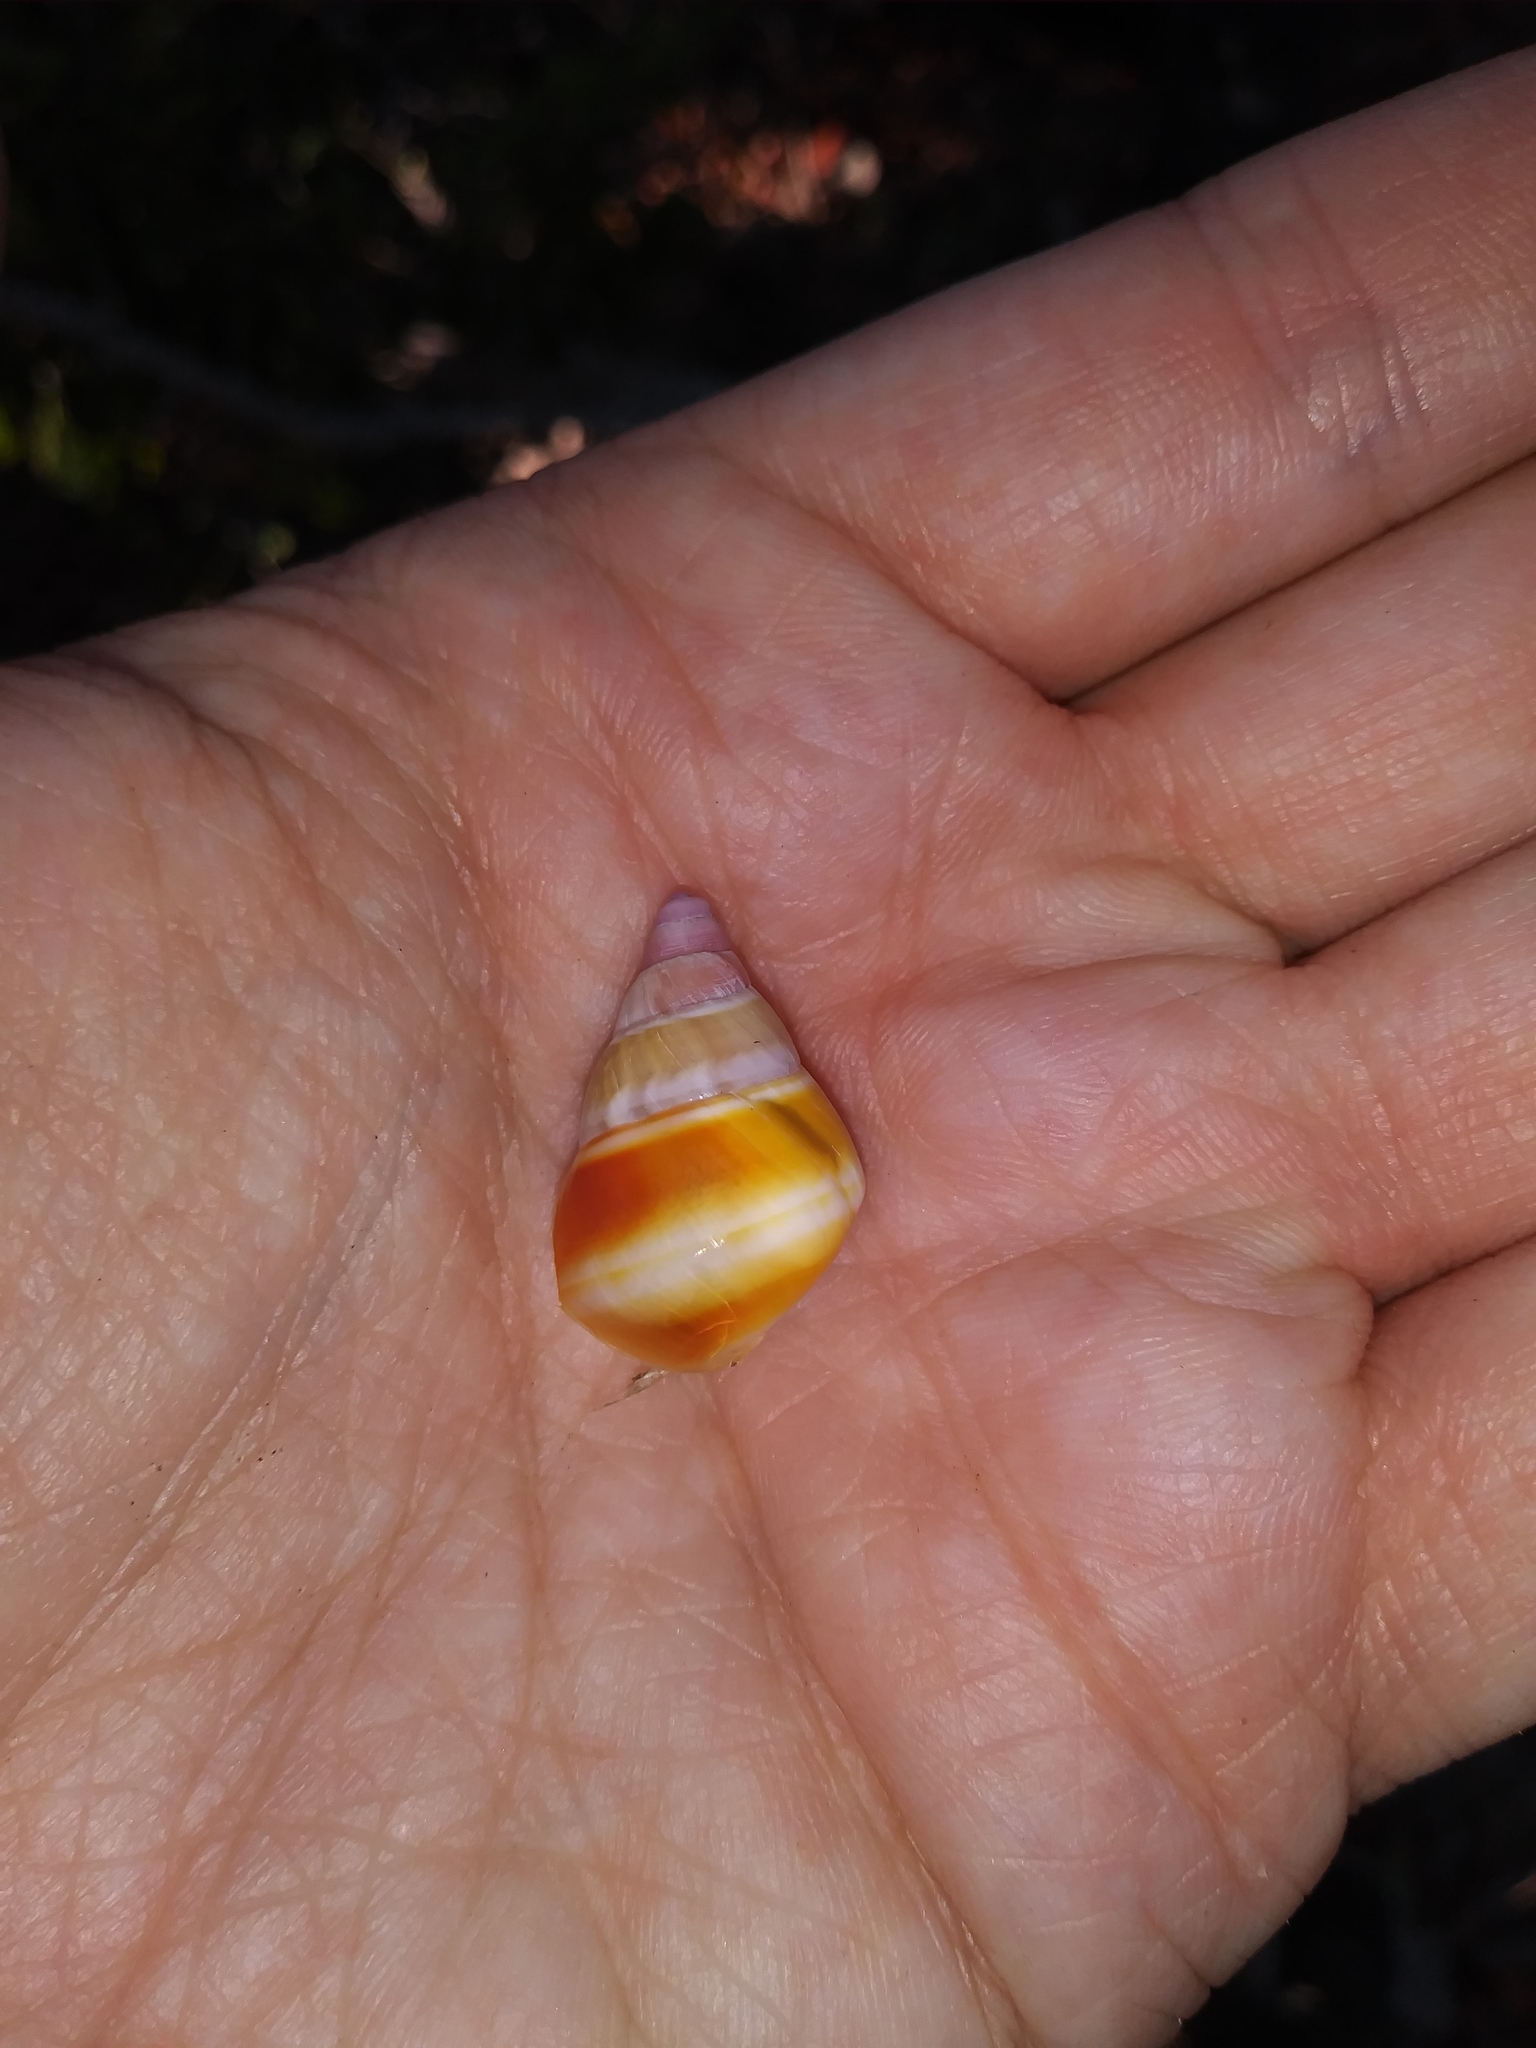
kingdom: Animalia
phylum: Mollusca
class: Gastropoda
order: Stylommatophora
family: Orthalicidae
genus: Liguus
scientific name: Liguus fasciatus
